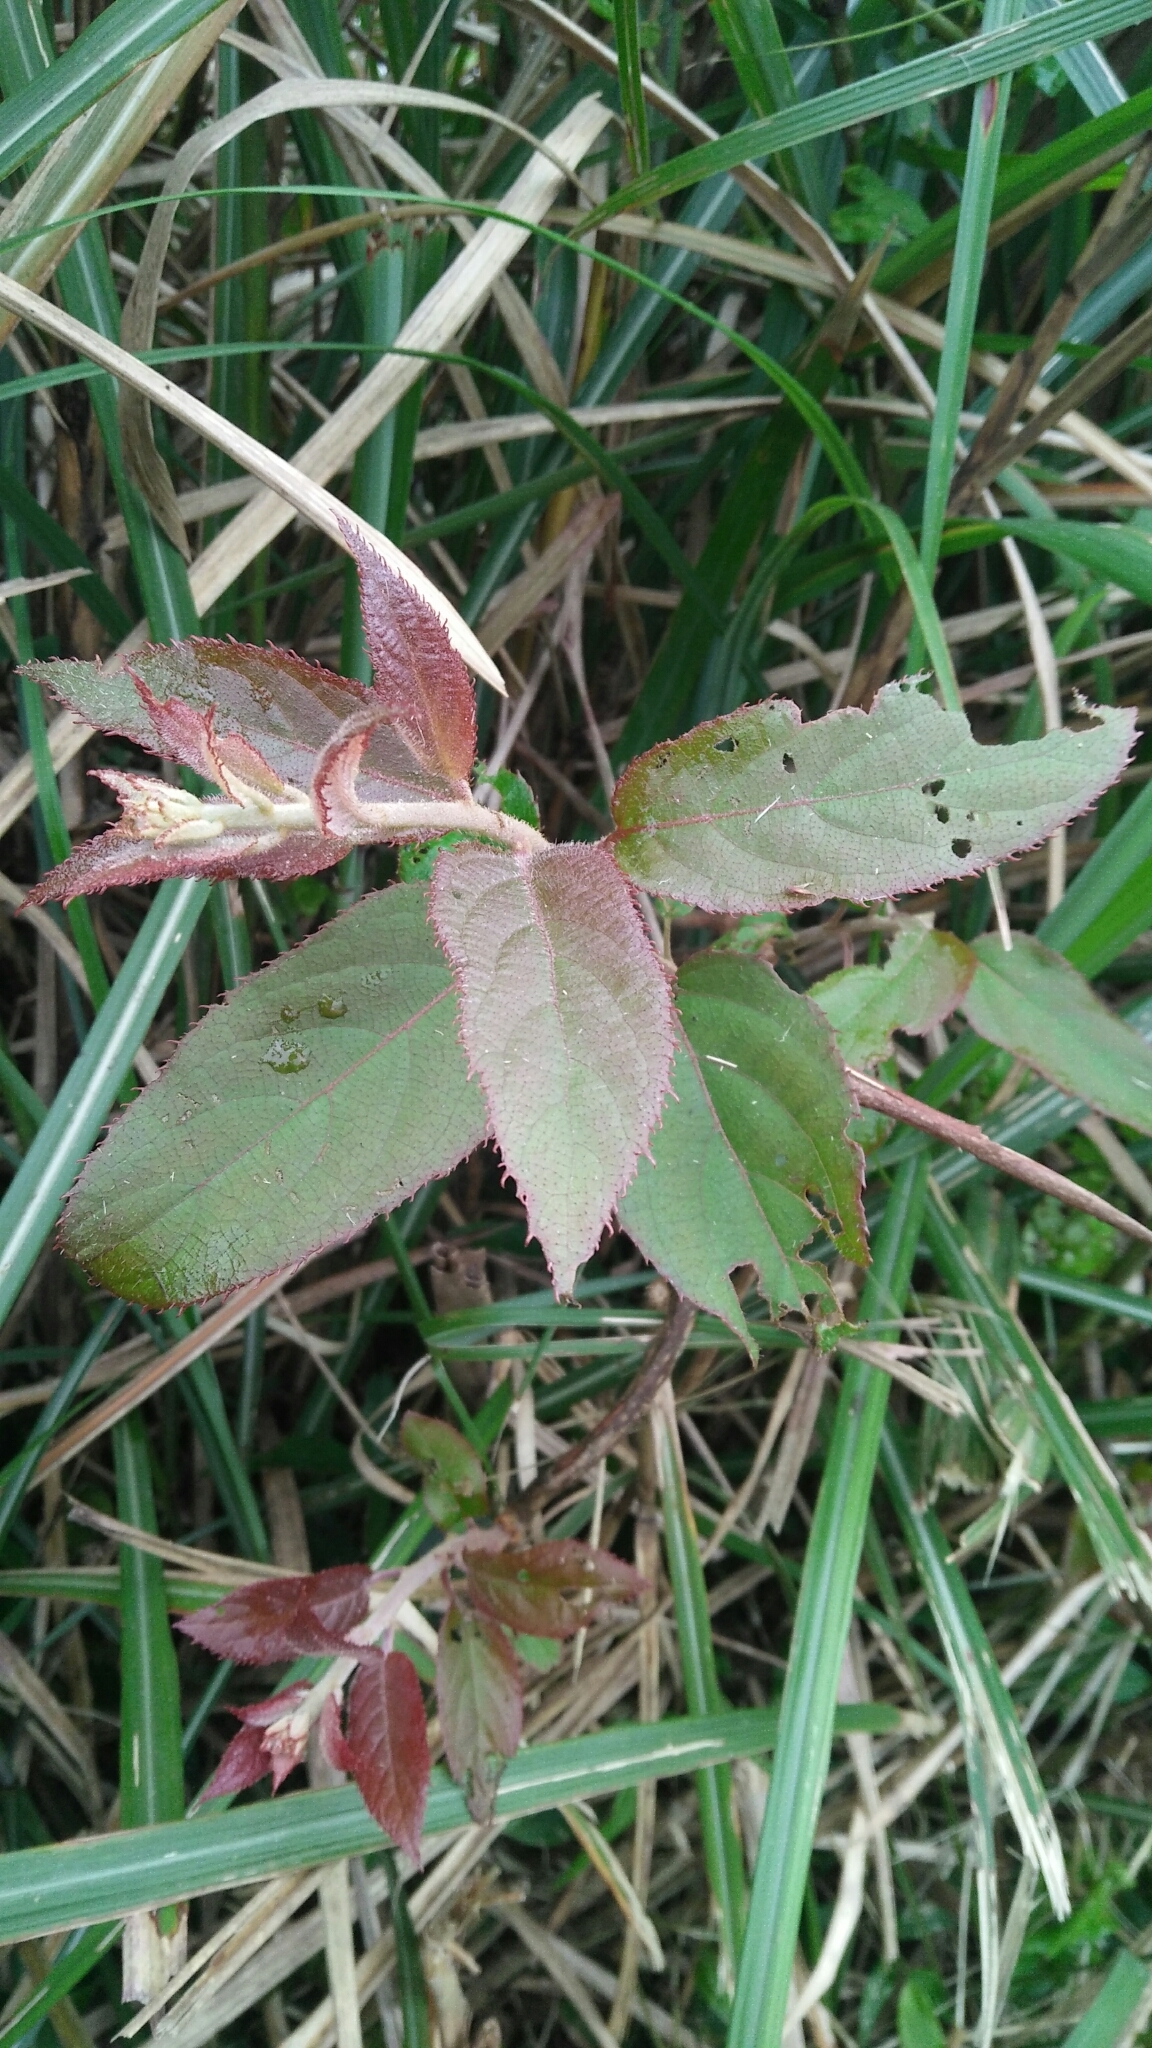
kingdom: Plantae
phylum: Tracheophyta
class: Magnoliopsida
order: Ericales
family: Actinidiaceae
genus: Actinidia
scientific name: Actinidia rufa
